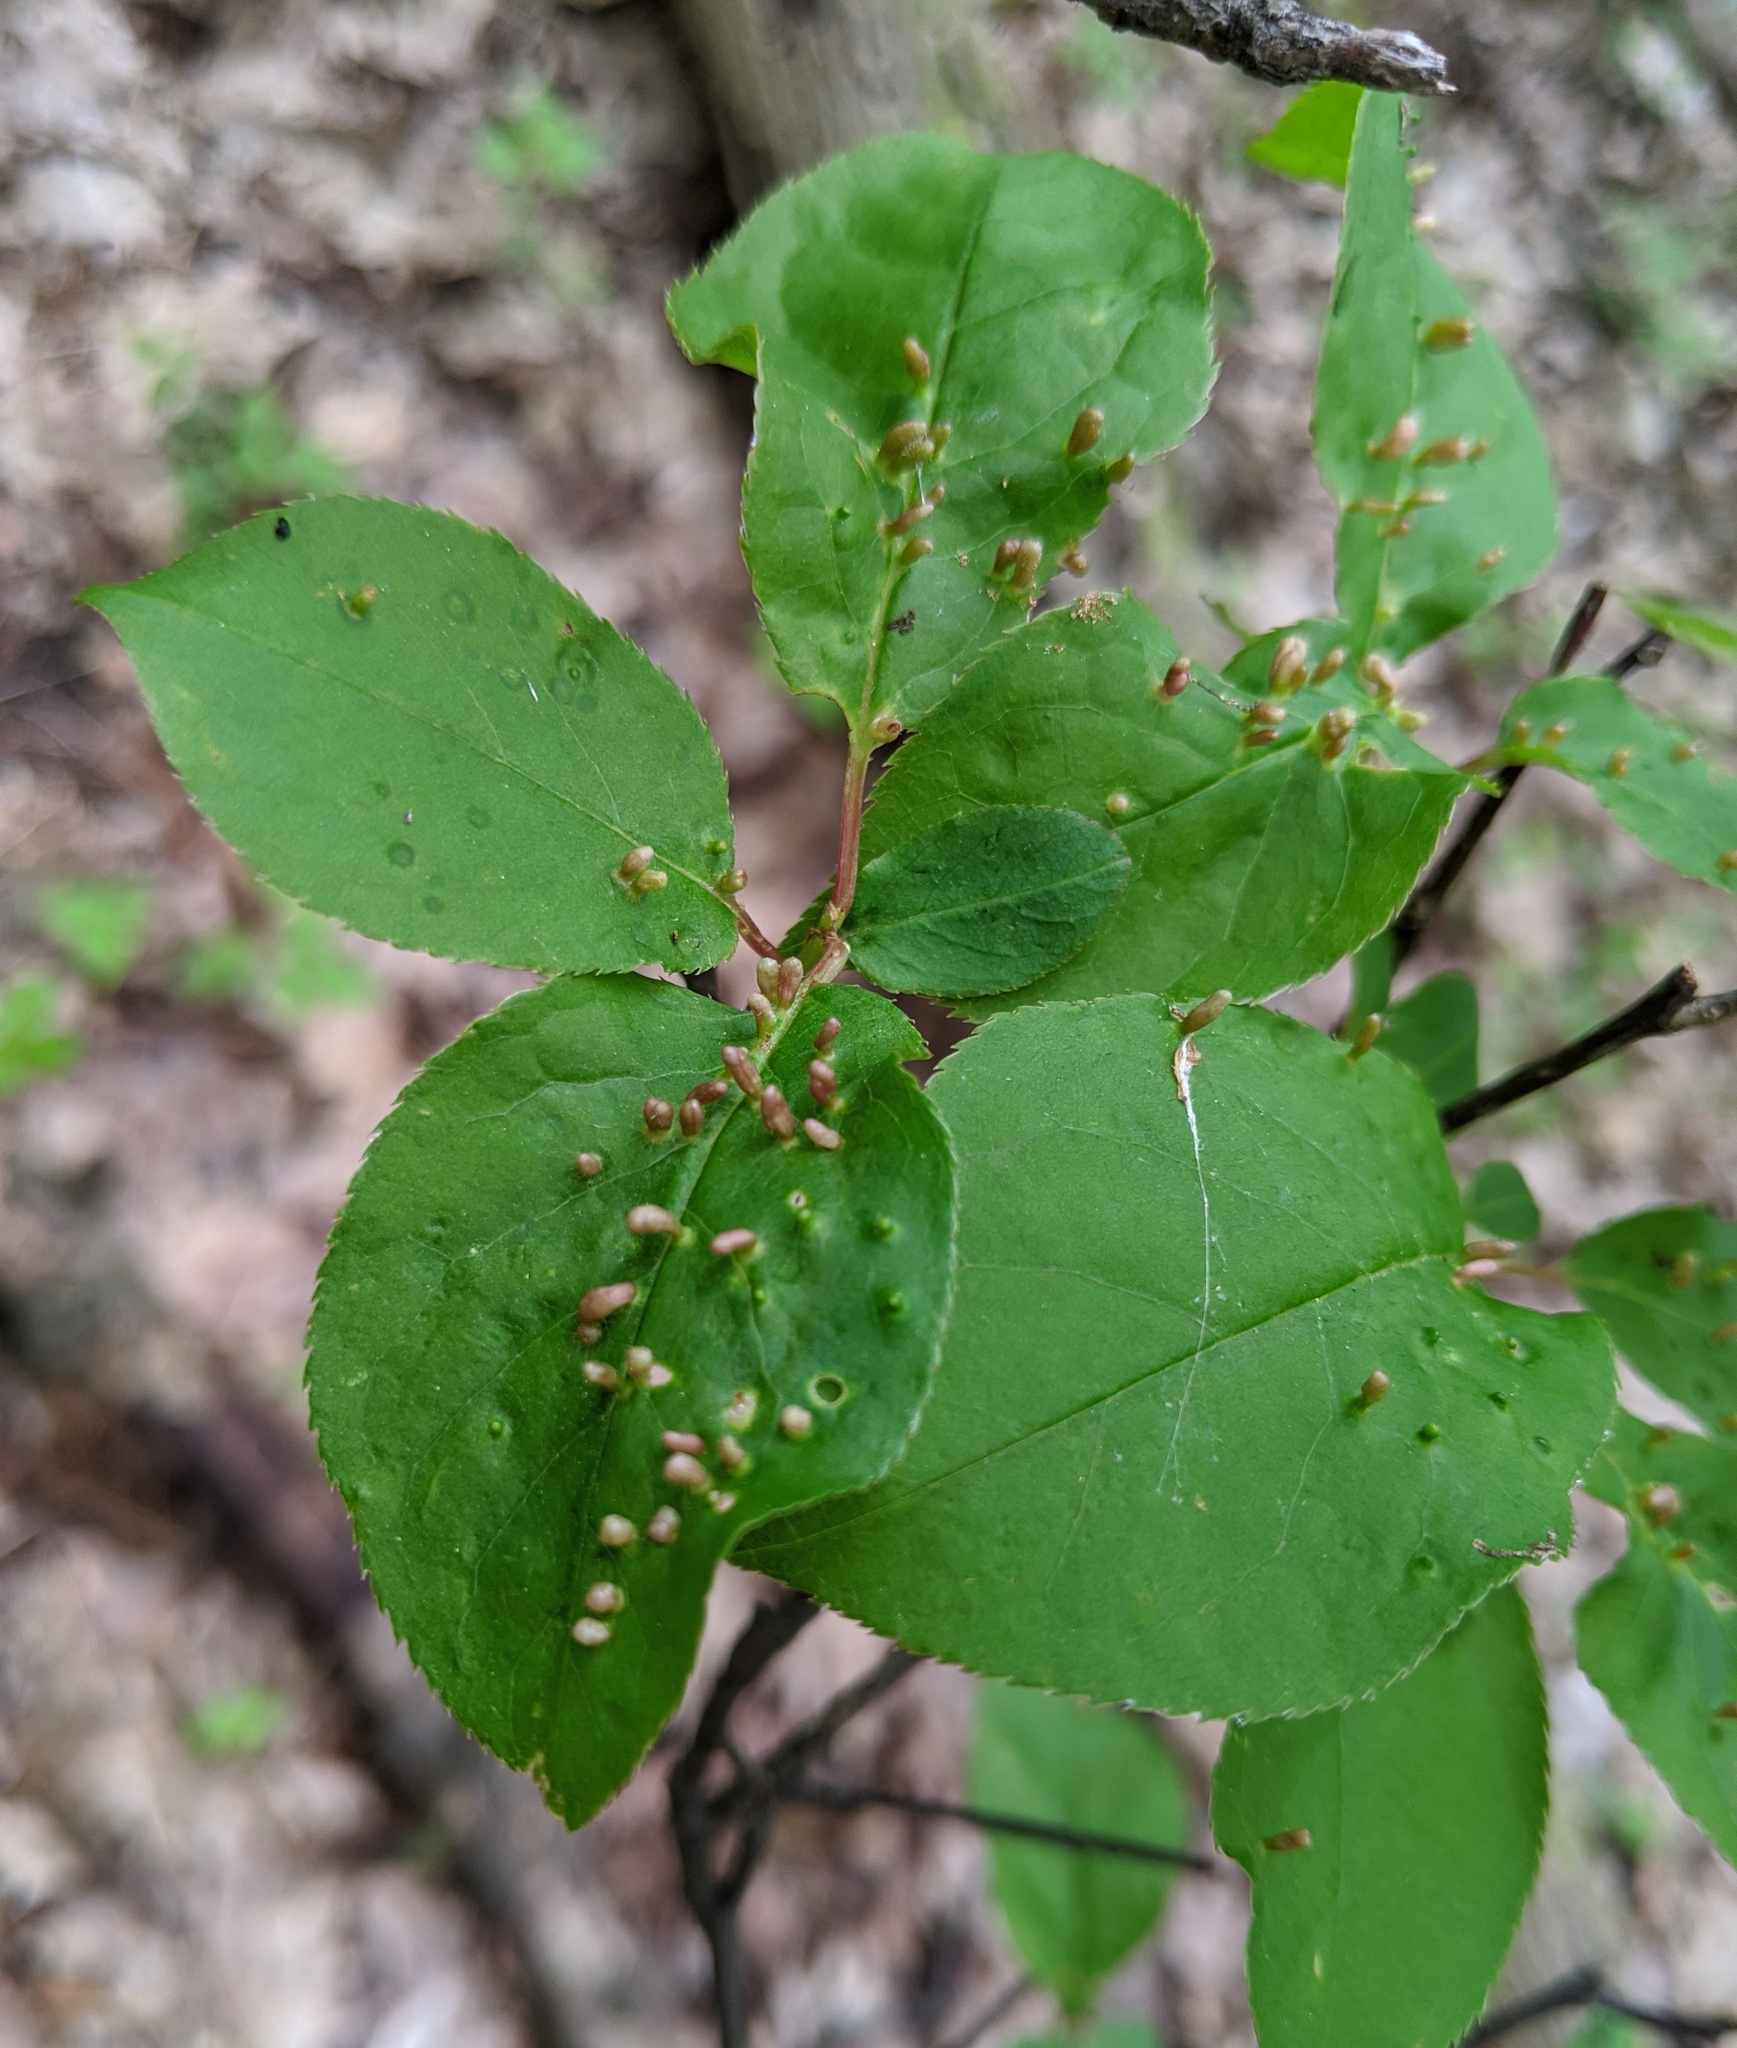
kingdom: Animalia
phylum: Arthropoda
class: Arachnida
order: Trombidiformes
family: Eriophyidae
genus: Eriophyes
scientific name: Eriophyes emarginatae
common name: Plum leaf gall mite
